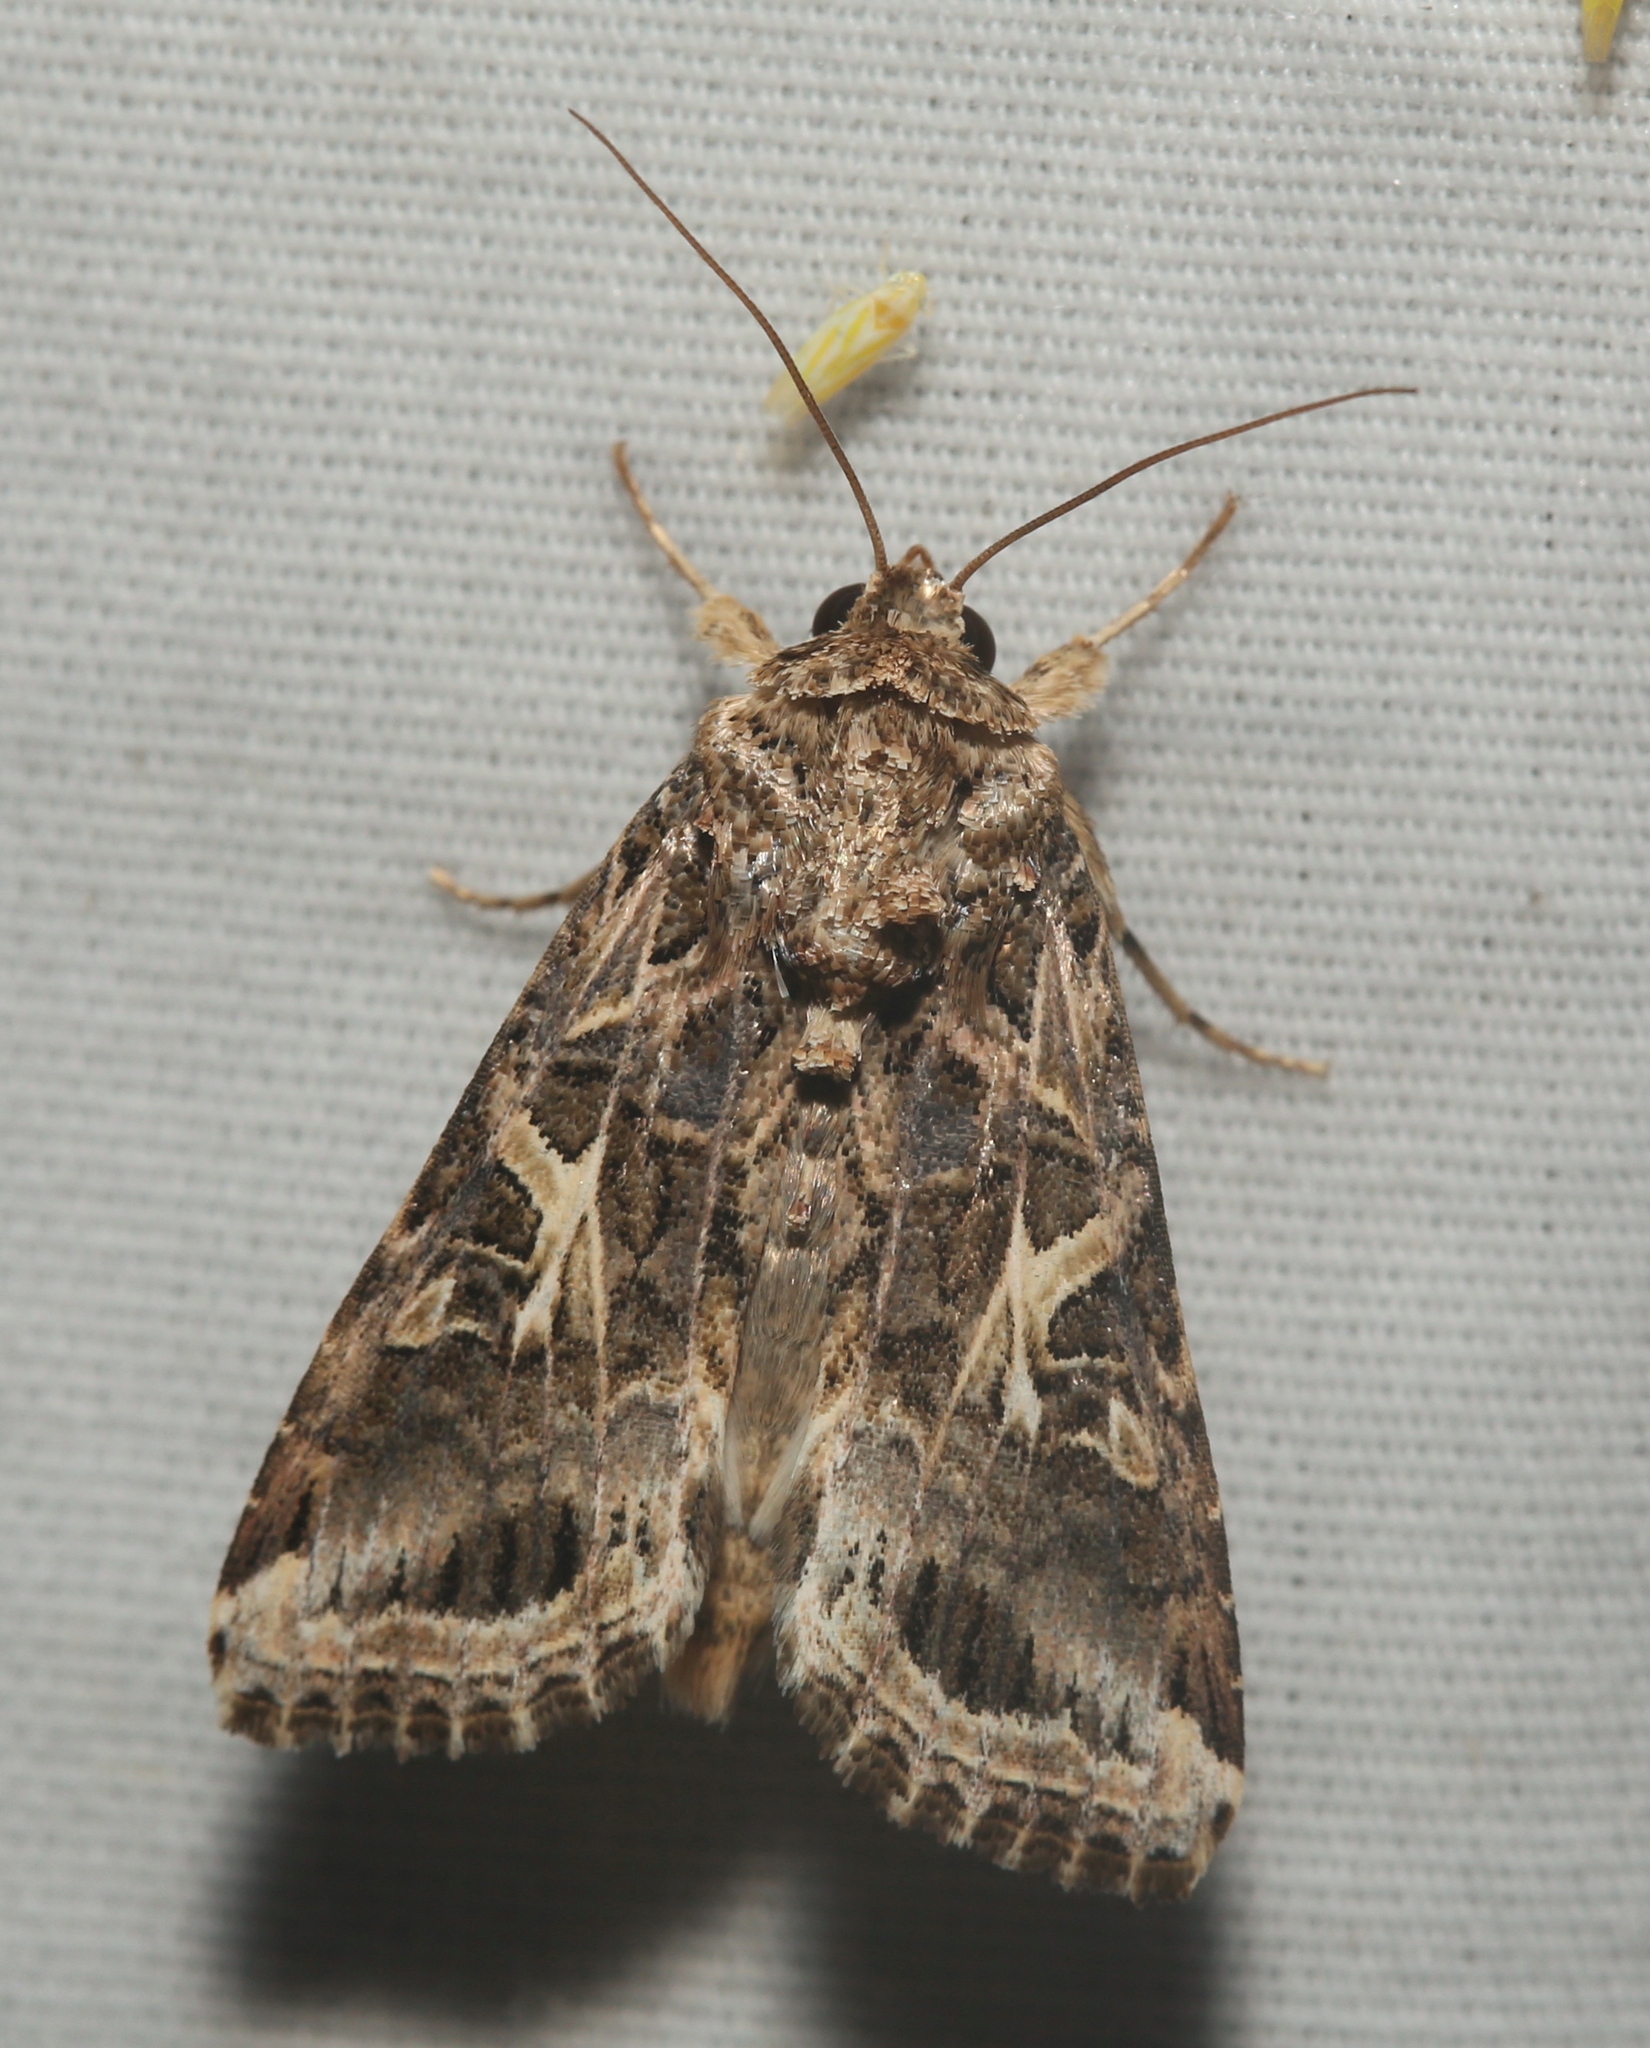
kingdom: Animalia
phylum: Arthropoda
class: Insecta
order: Lepidoptera
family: Noctuidae
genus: Spodoptera
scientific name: Spodoptera ornithogalli
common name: Yellow-striped armyworm
